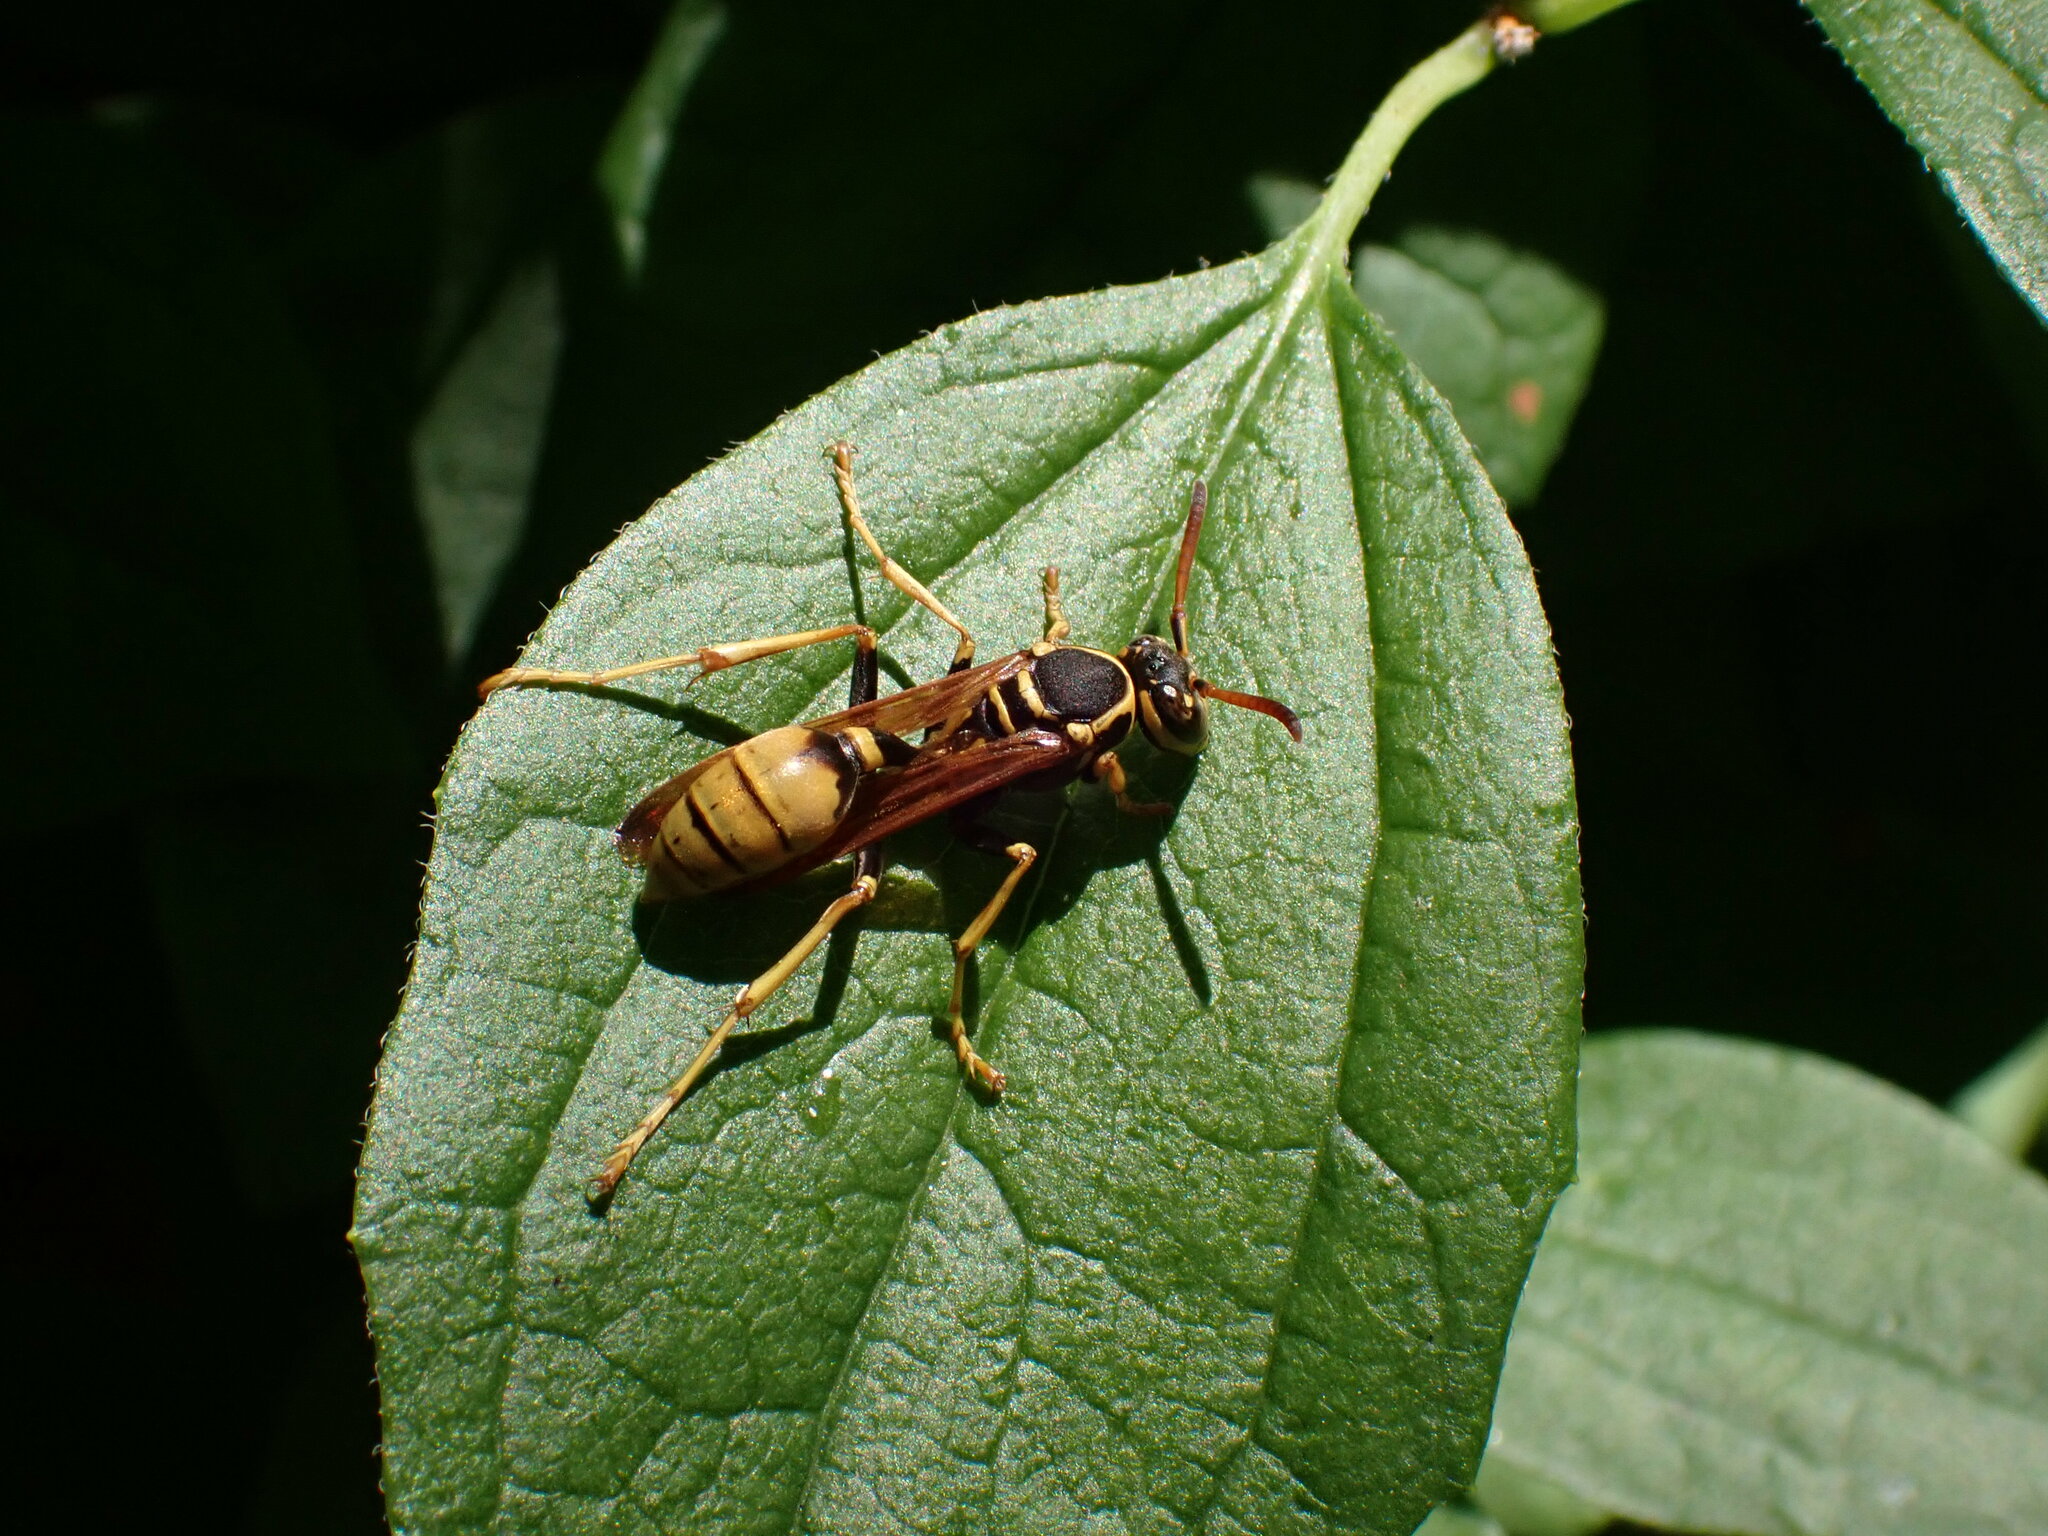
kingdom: Animalia
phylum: Arthropoda
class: Insecta
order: Hymenoptera
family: Vespidae
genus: Mischocyttarus
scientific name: Mischocyttarus flavitarsis
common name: Wasp
